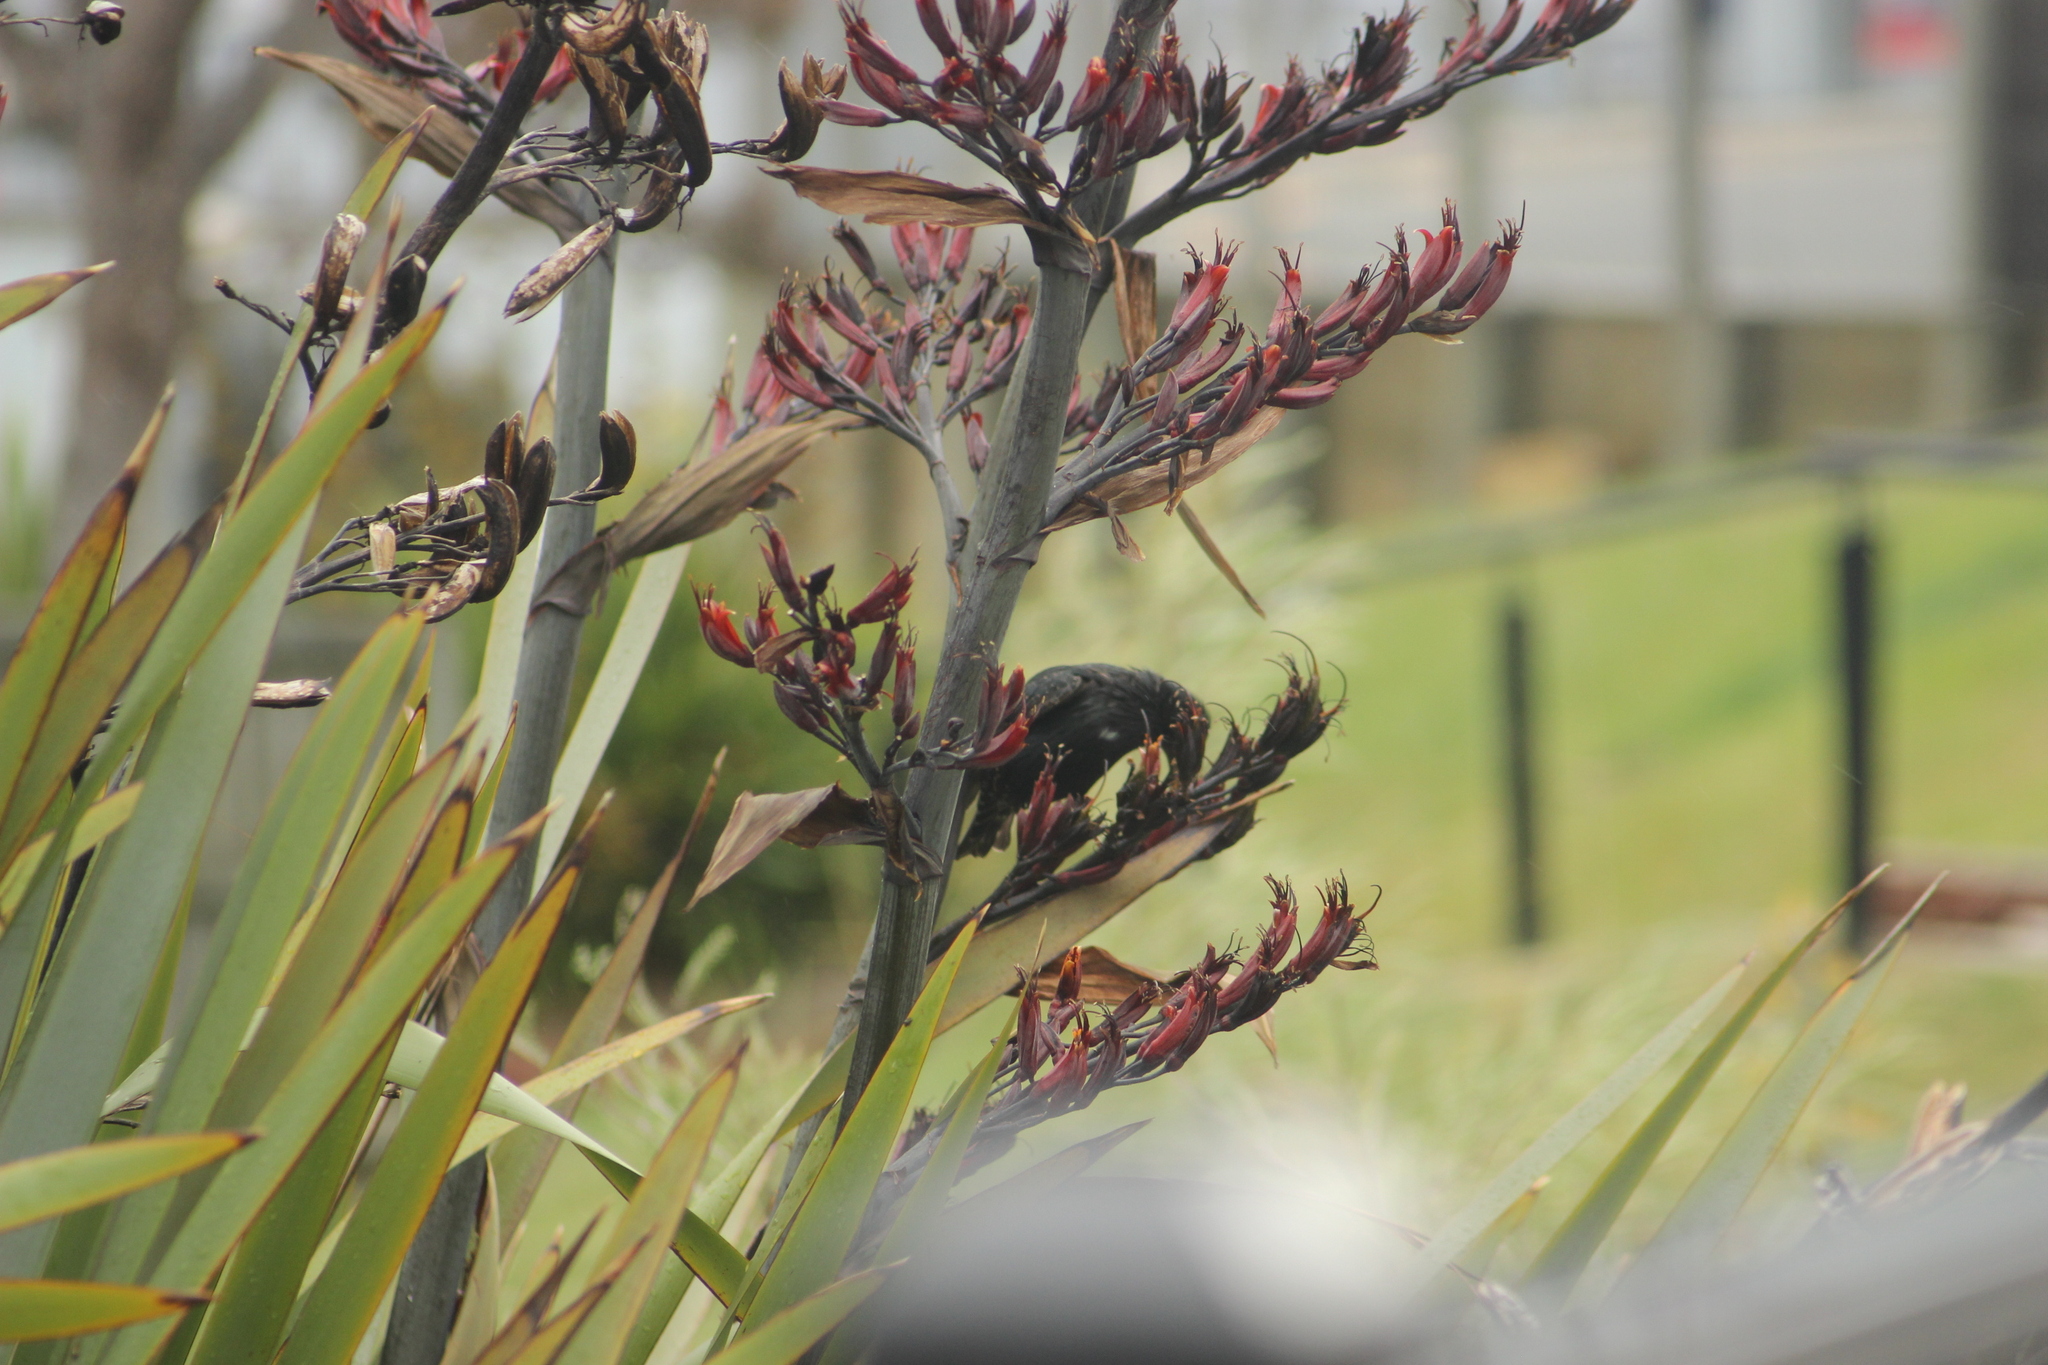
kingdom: Animalia
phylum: Chordata
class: Aves
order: Passeriformes
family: Sturnidae
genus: Sturnus
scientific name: Sturnus vulgaris
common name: Common starling
